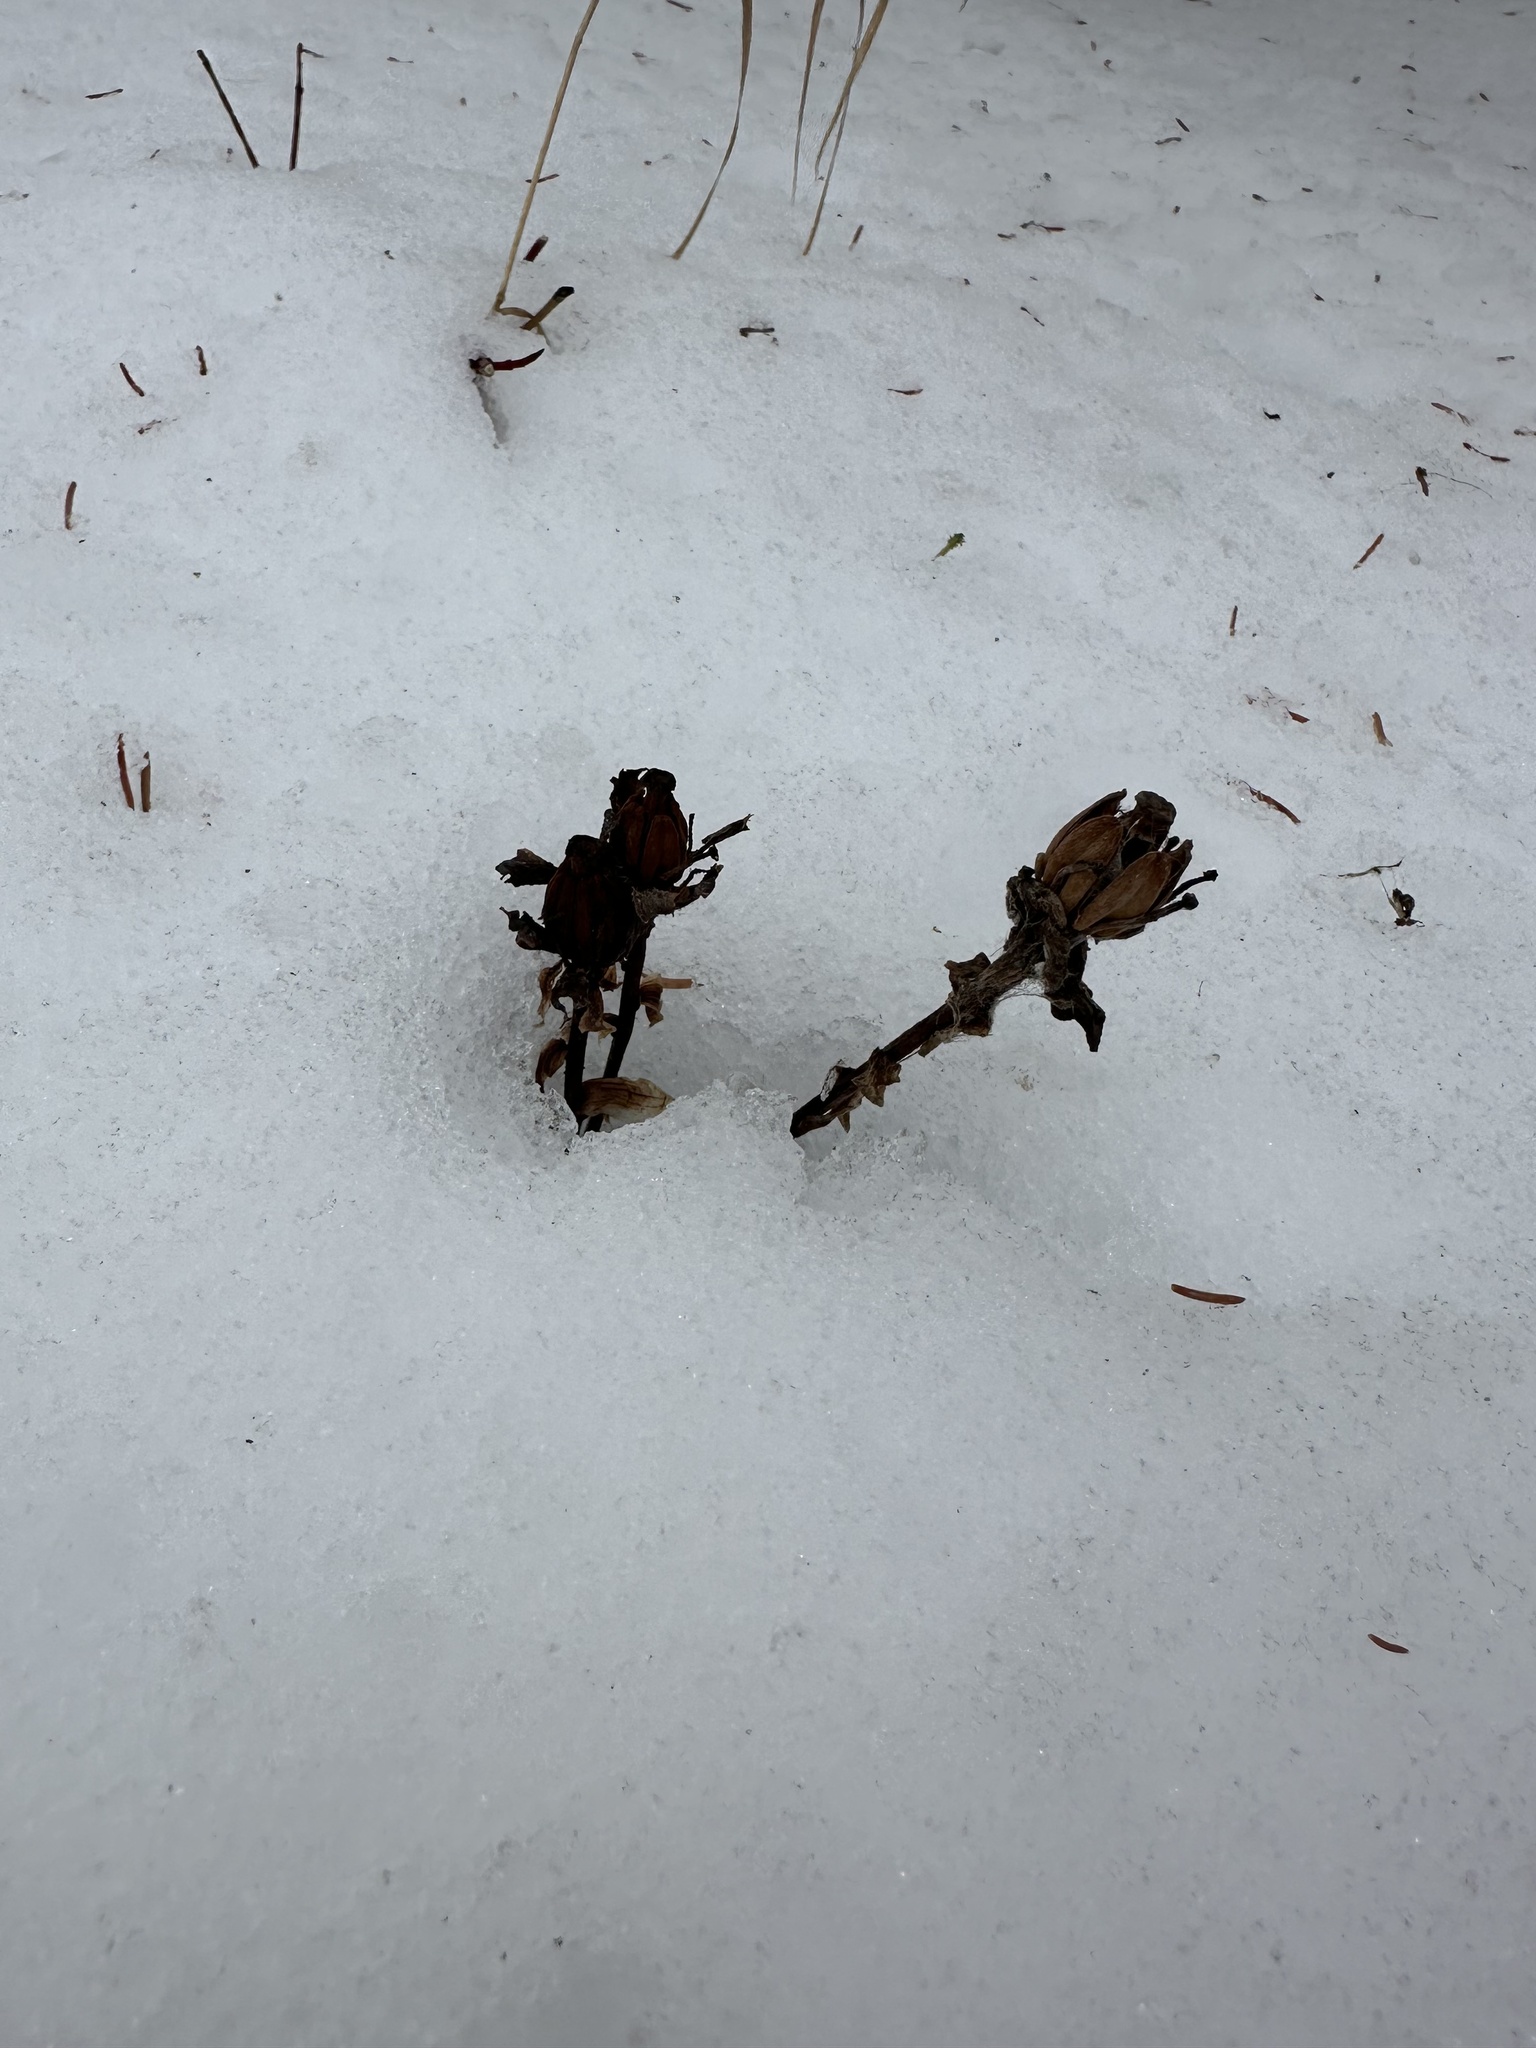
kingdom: Plantae
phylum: Tracheophyta
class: Magnoliopsida
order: Ericales
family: Ericaceae
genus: Monotropa
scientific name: Monotropa uniflora
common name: Convulsion root
